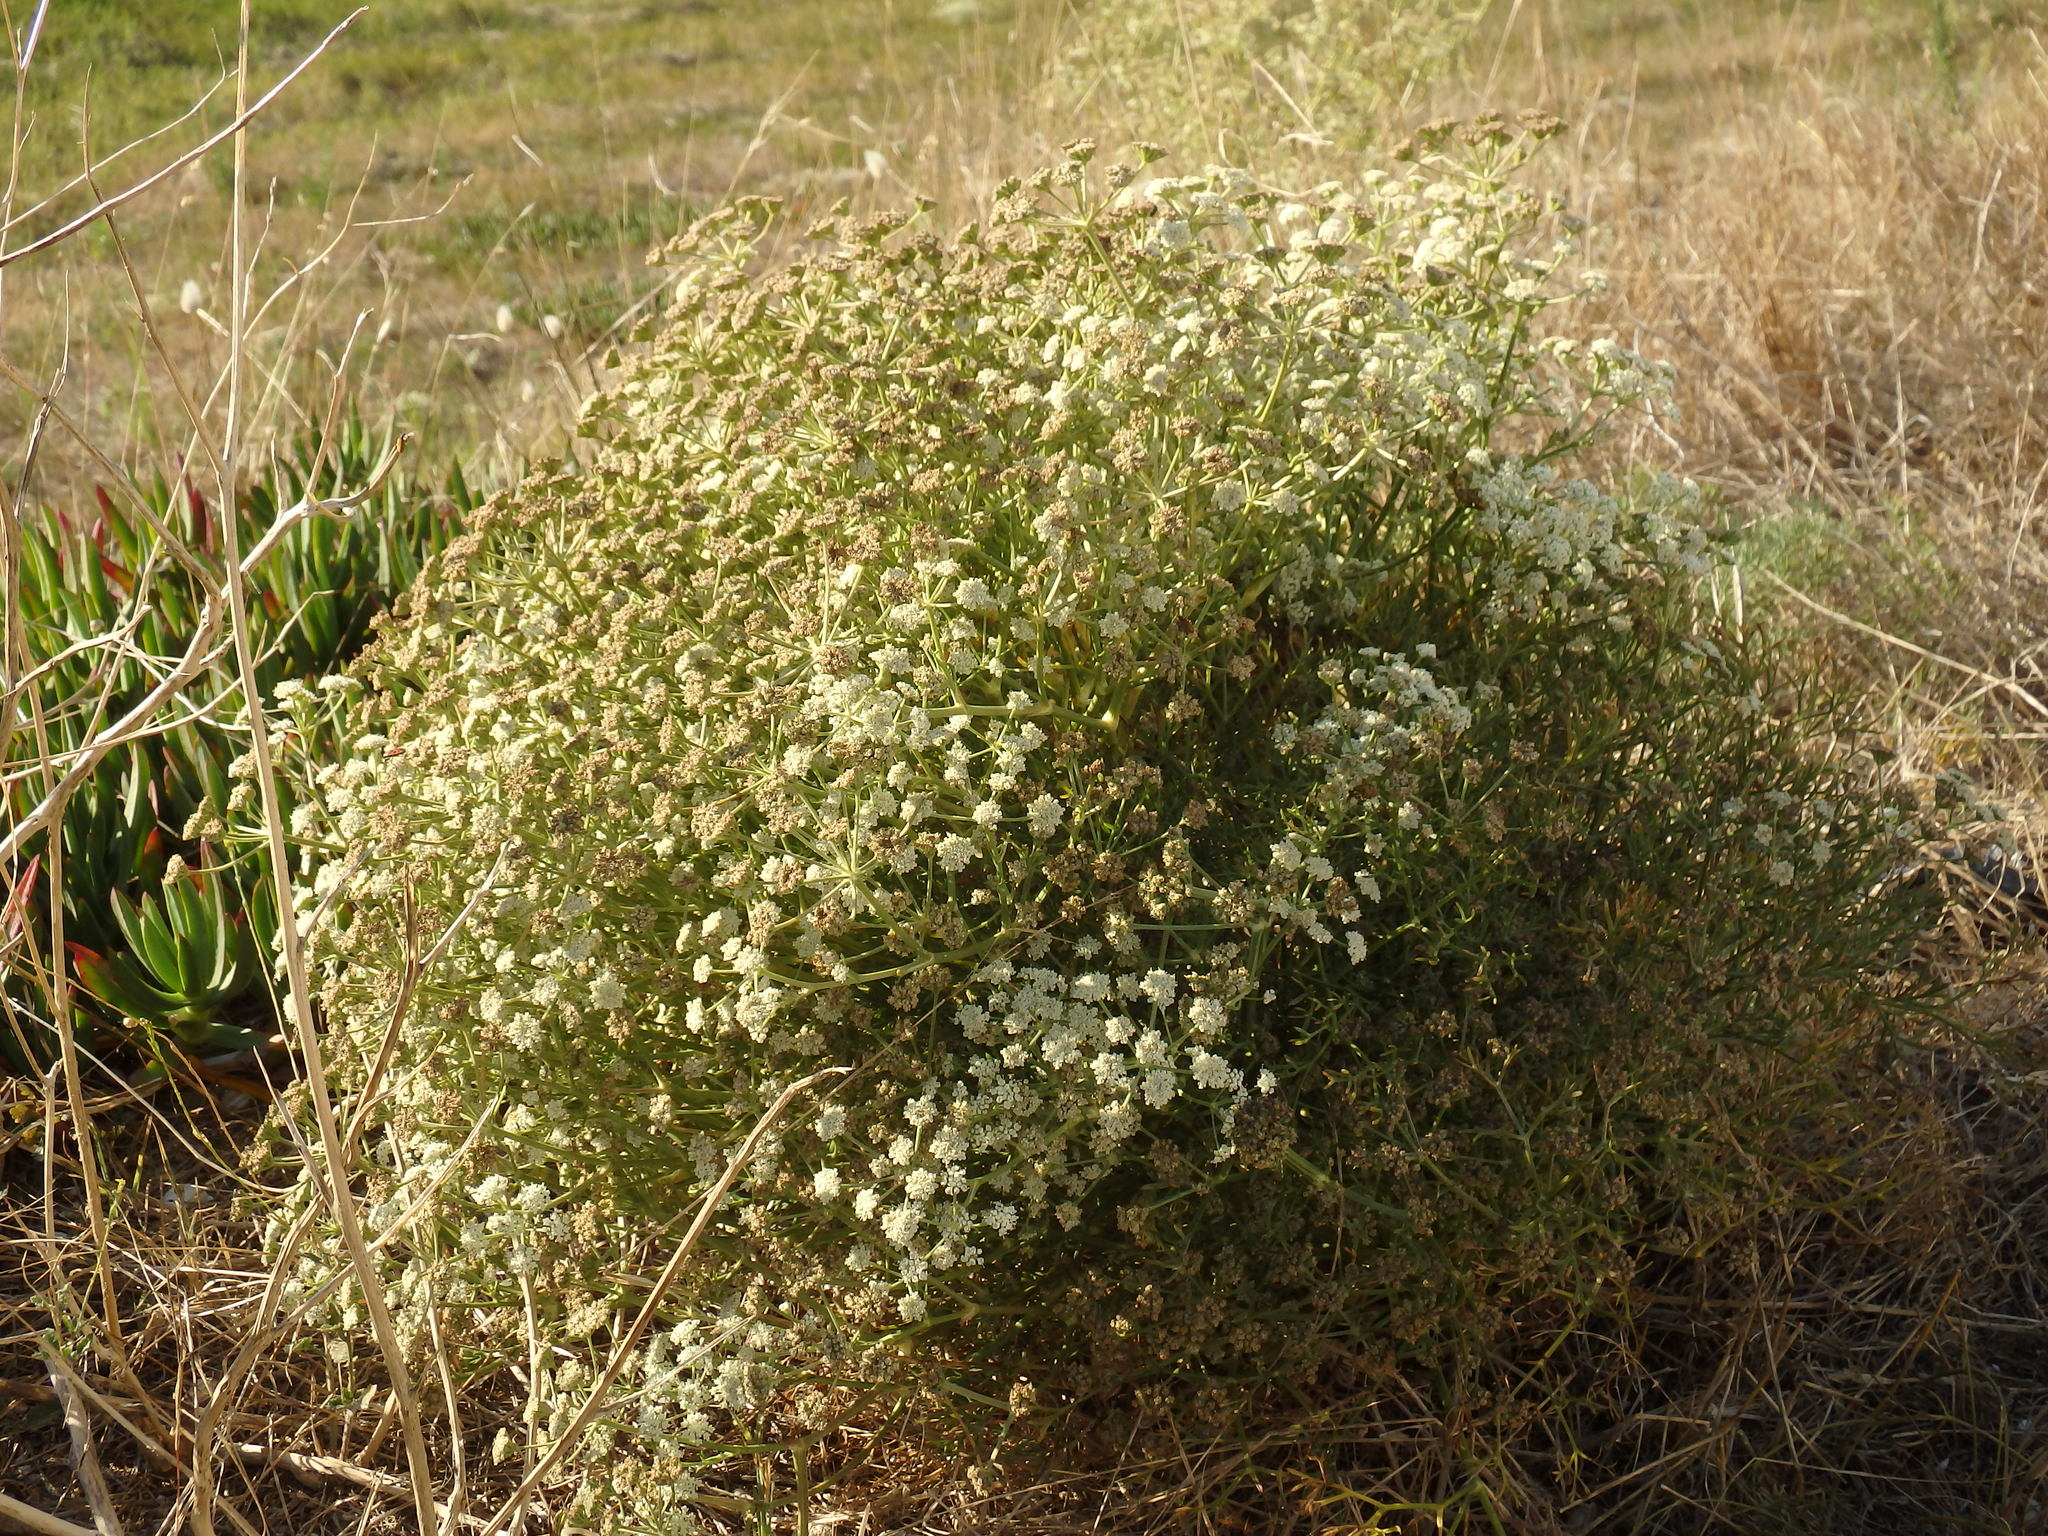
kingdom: Plantae
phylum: Tracheophyta
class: Magnoliopsida
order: Apiales
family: Apiaceae
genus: Seseli
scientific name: Seseli tortuosum
